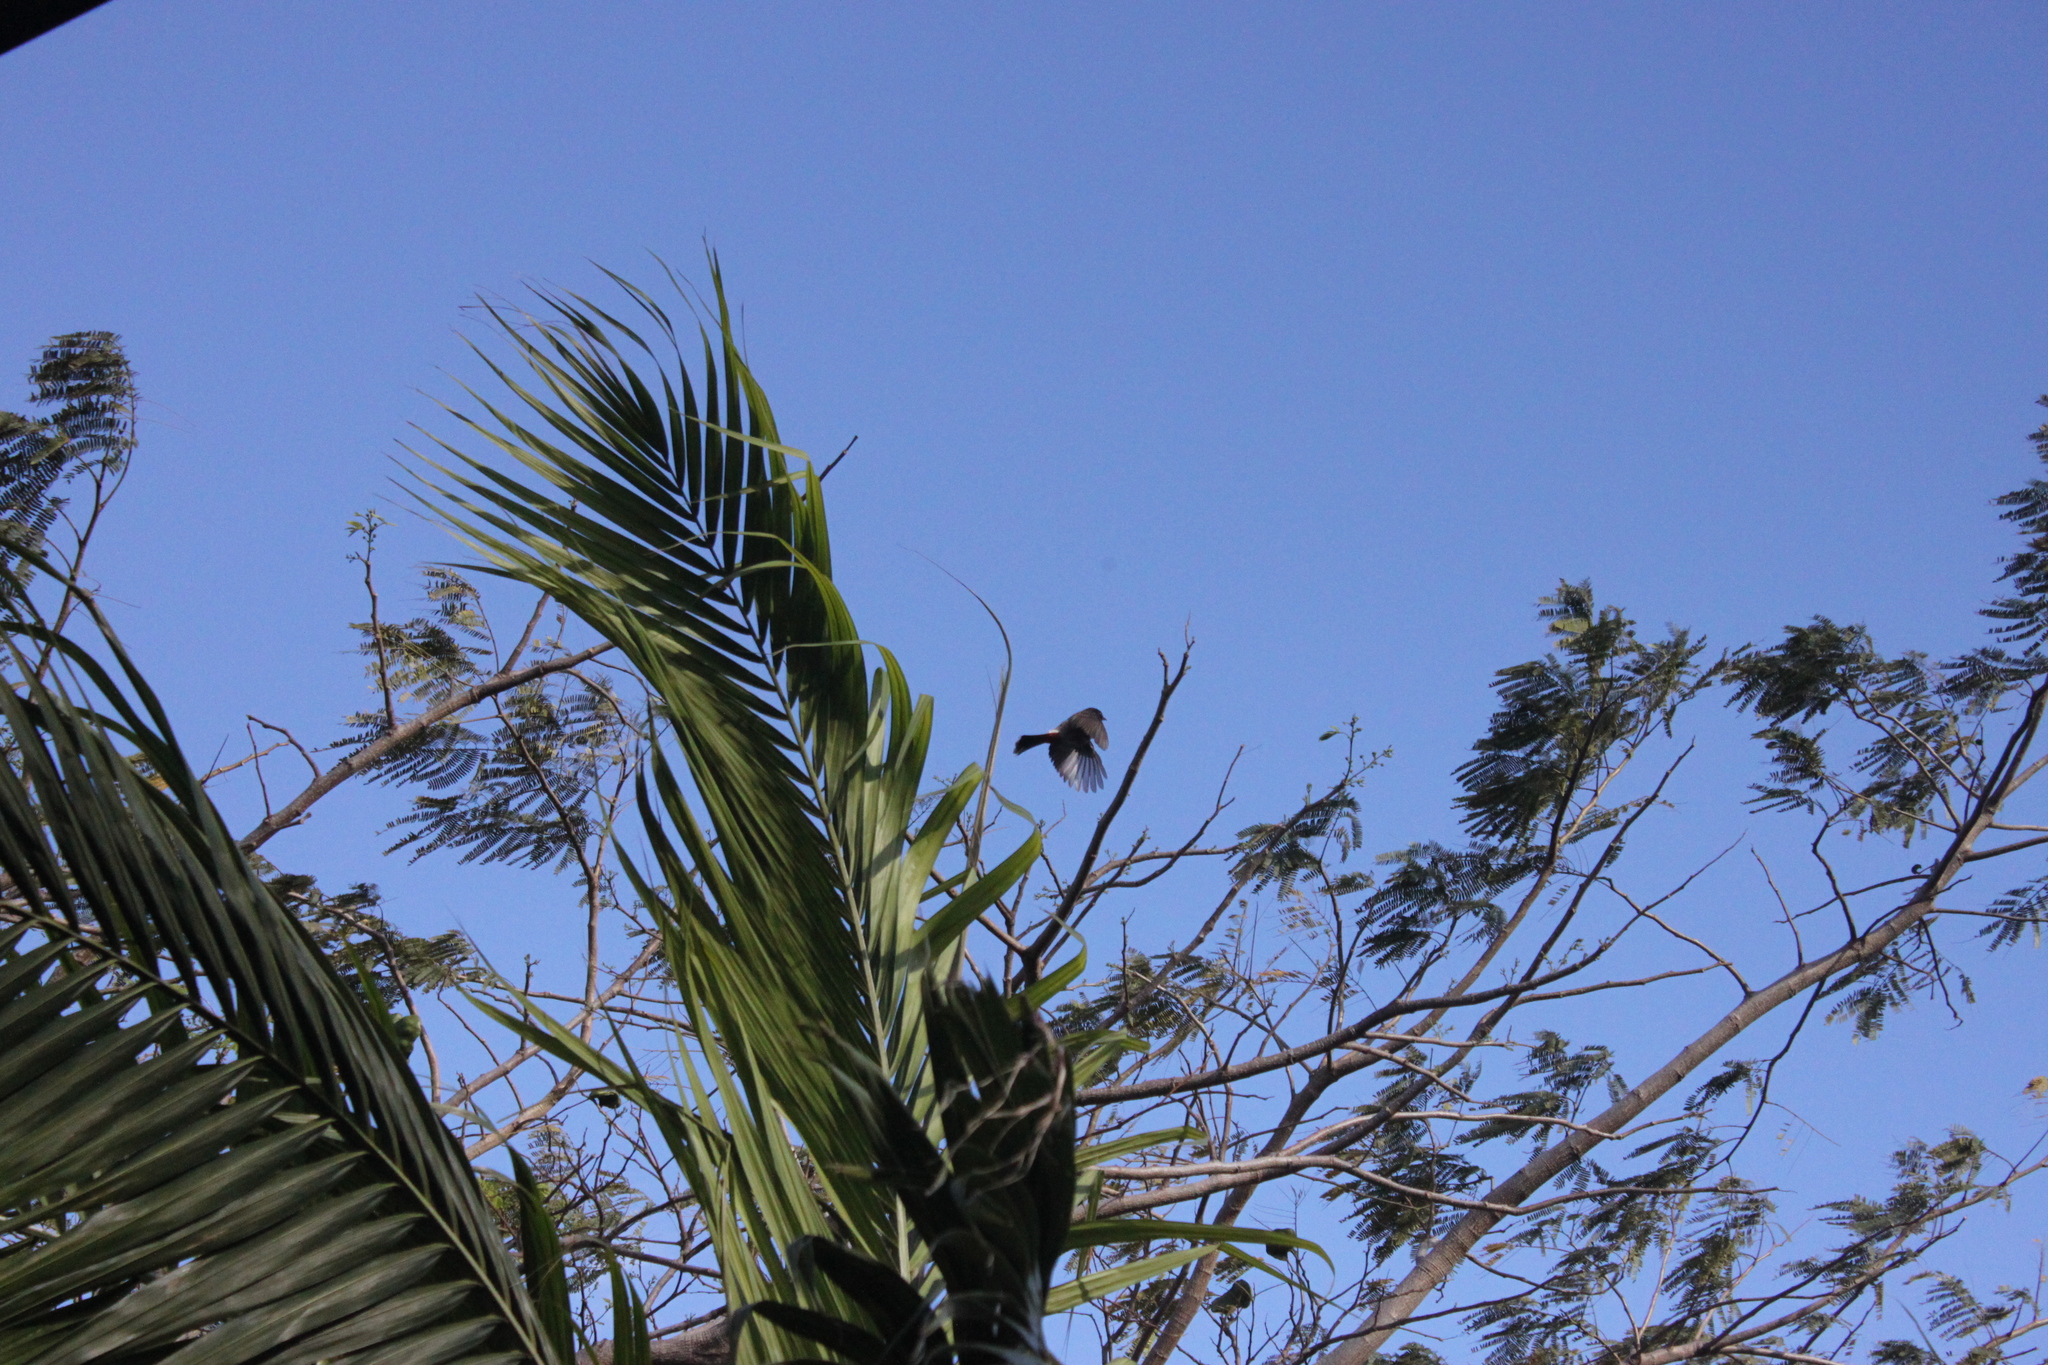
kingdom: Animalia
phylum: Chordata
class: Aves
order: Passeriformes
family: Pycnonotidae
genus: Pycnonotus
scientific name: Pycnonotus cafer
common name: Red-vented bulbul
